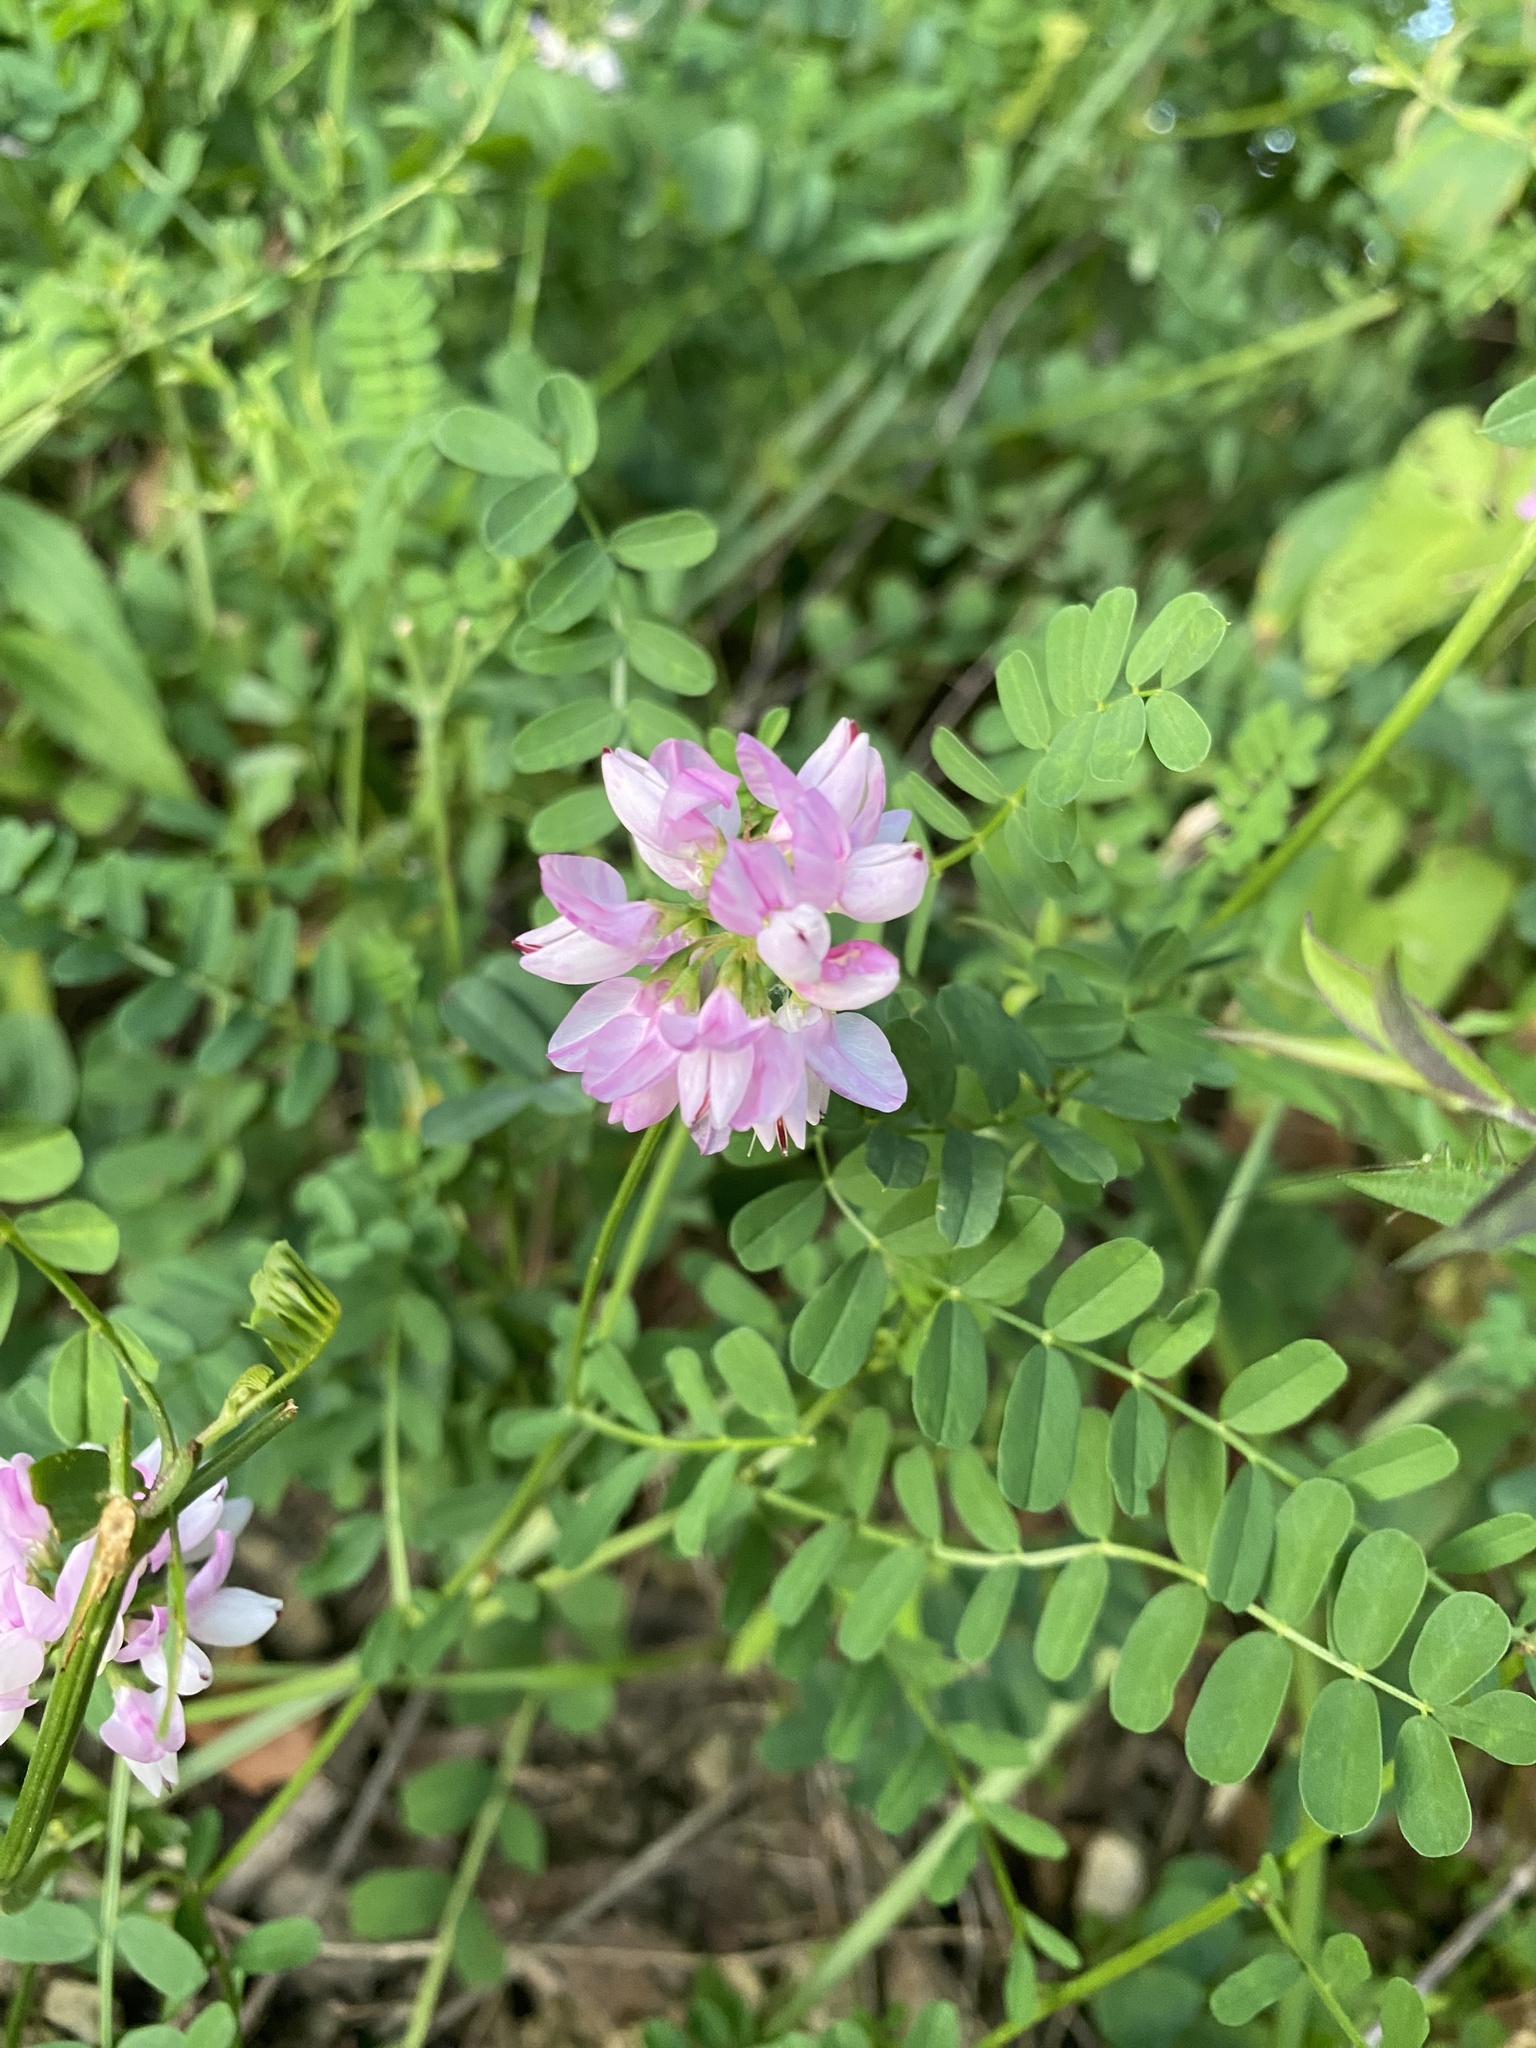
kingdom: Plantae
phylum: Tracheophyta
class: Magnoliopsida
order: Fabales
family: Fabaceae
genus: Coronilla
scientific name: Coronilla varia
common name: Crownvetch
